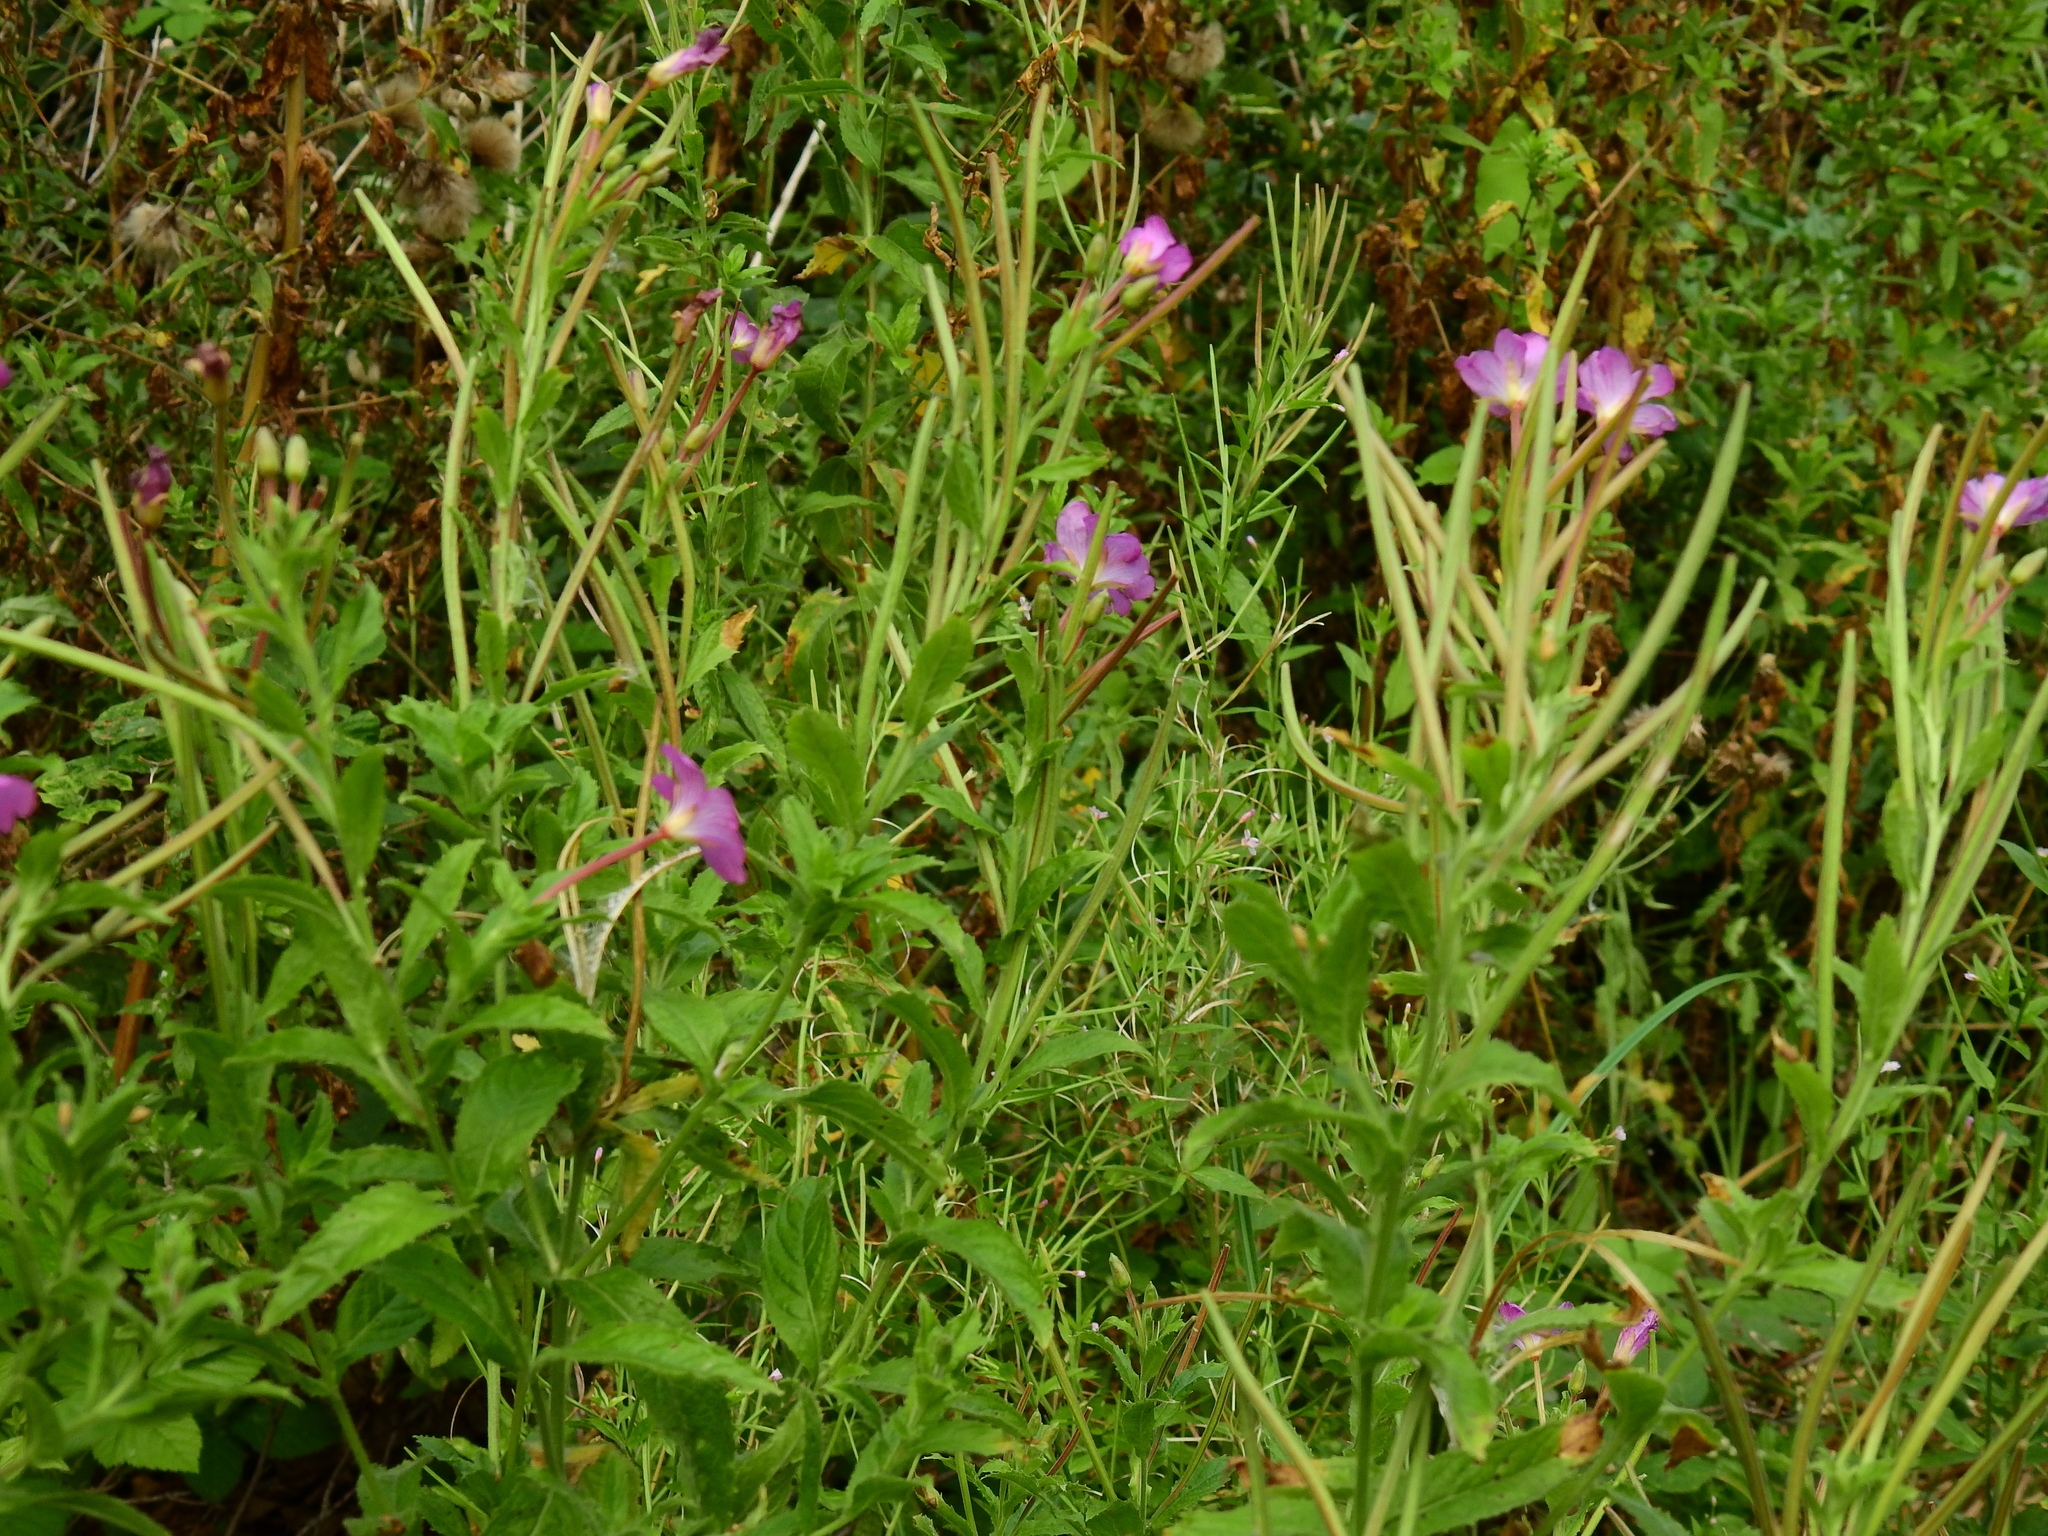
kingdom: Plantae
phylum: Tracheophyta
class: Magnoliopsida
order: Myrtales
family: Onagraceae
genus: Epilobium
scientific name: Epilobium hirsutum
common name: Great willowherb
